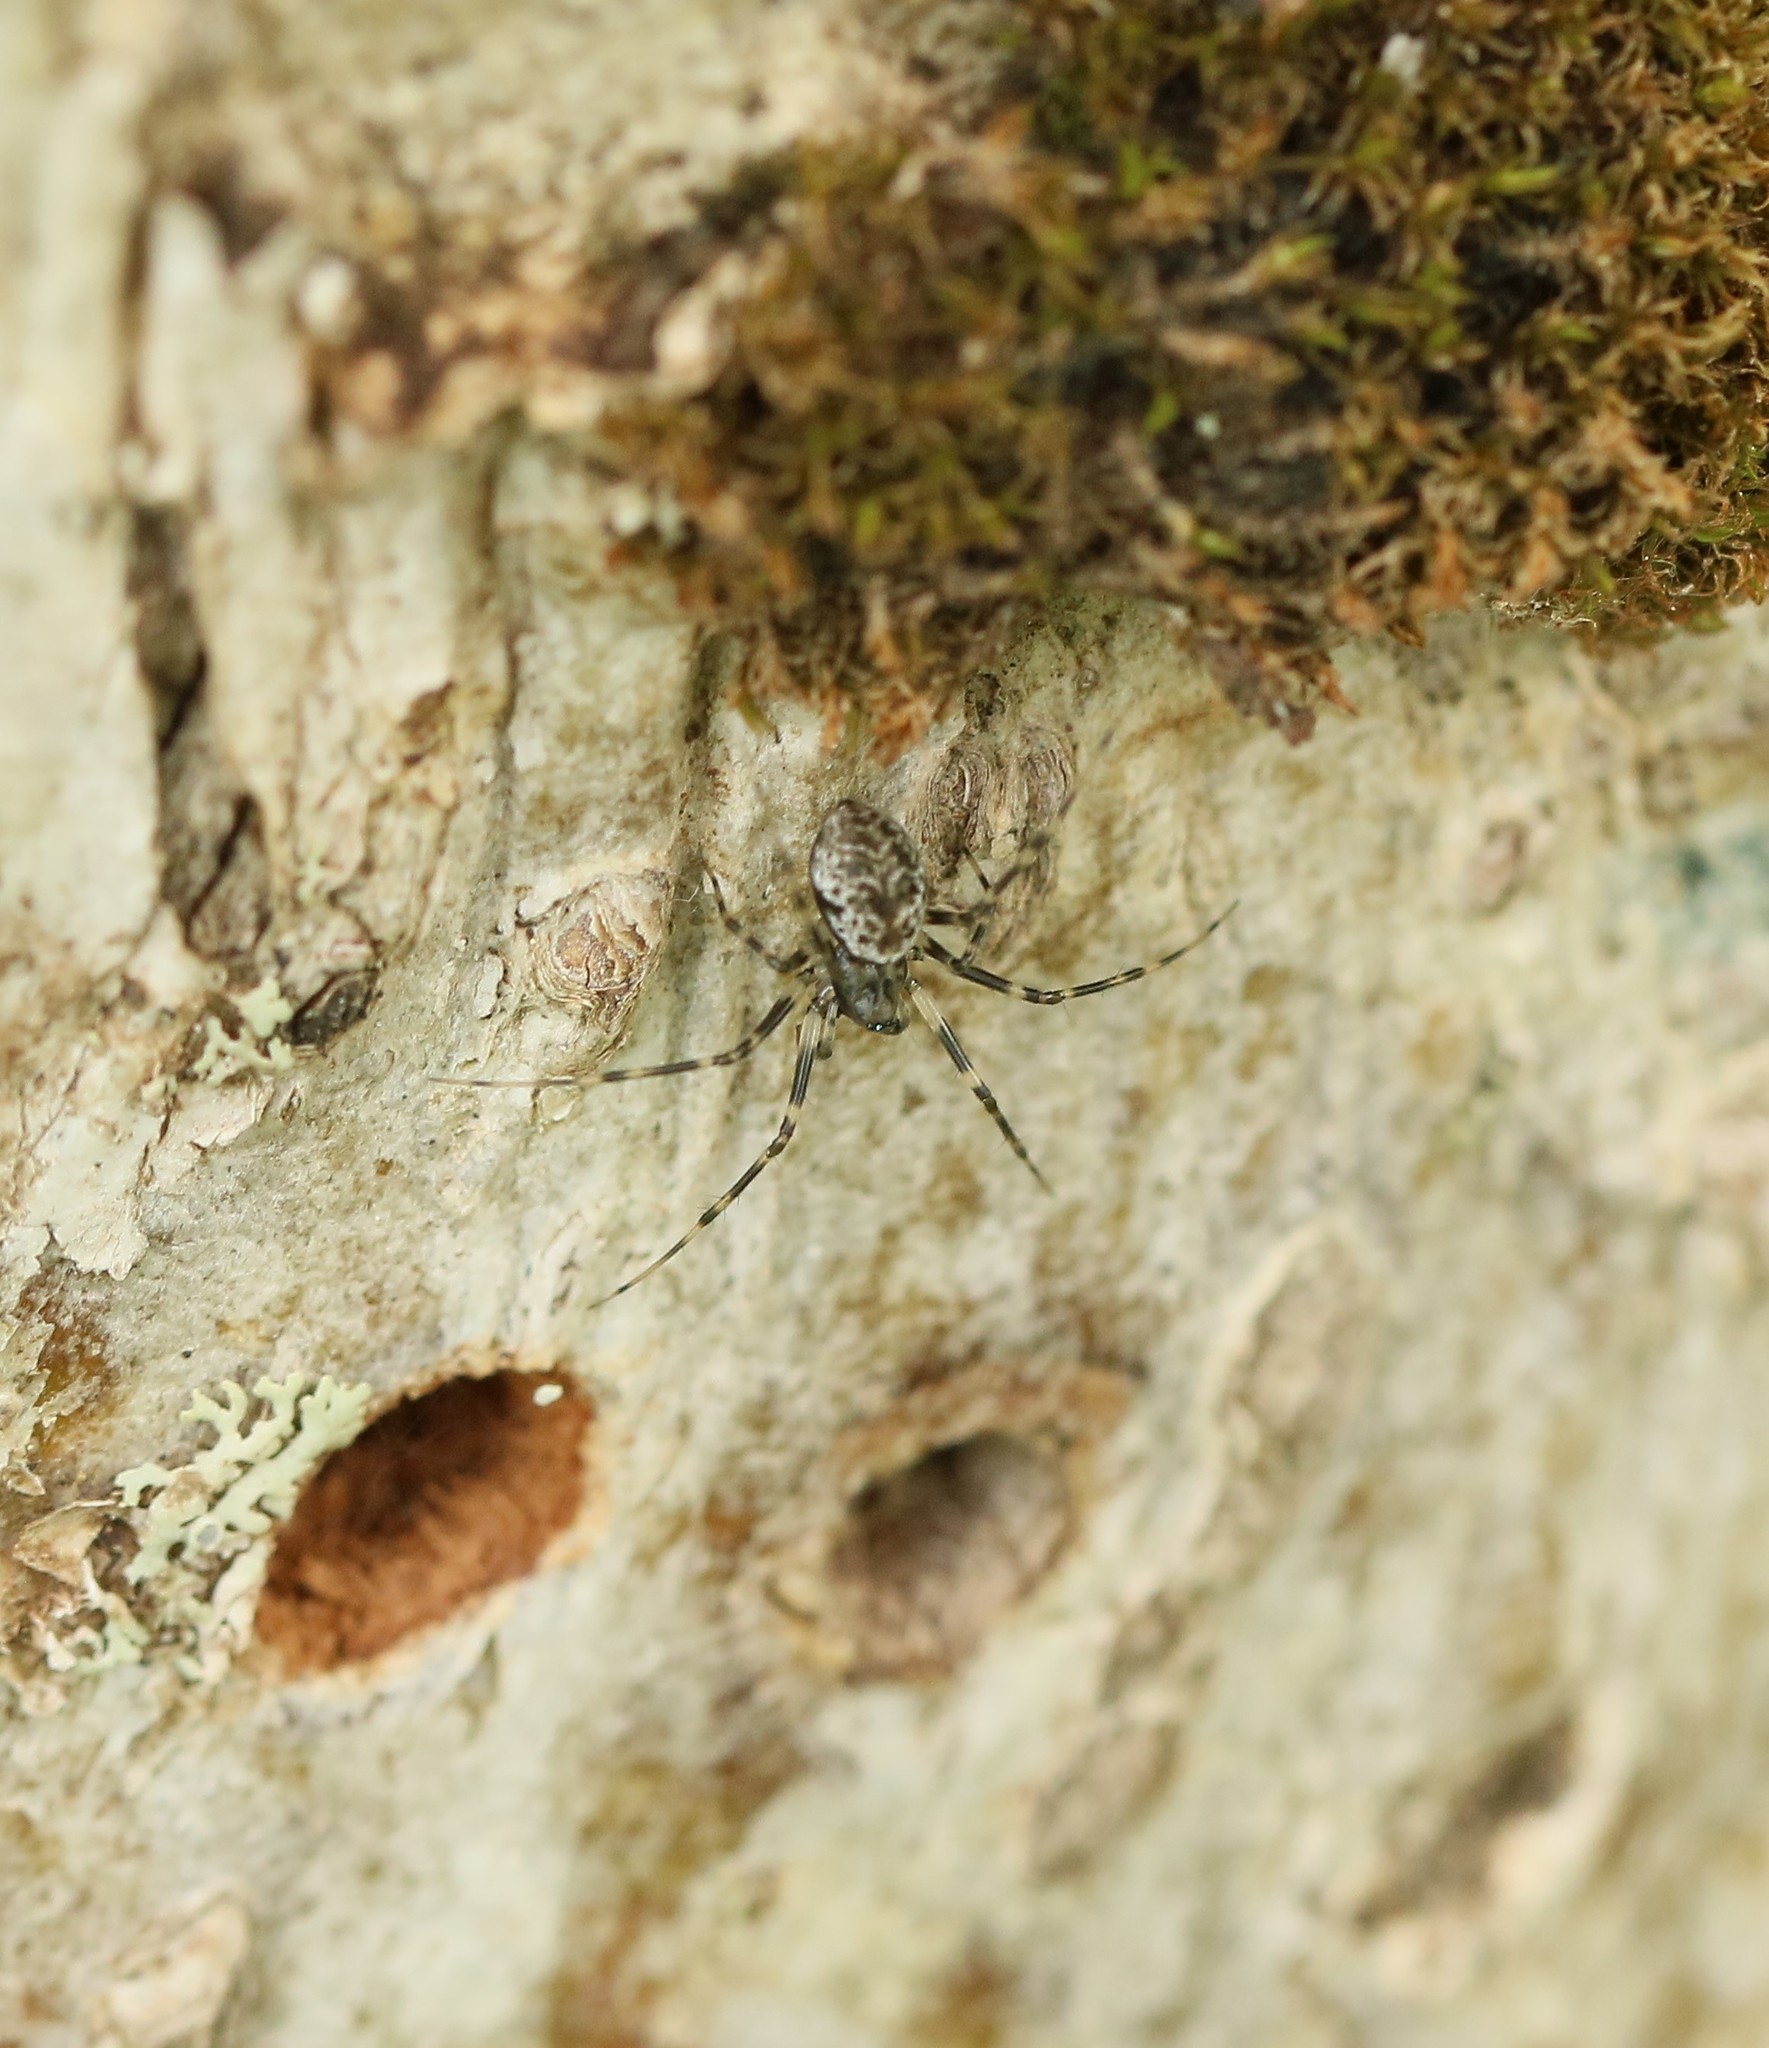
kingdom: Animalia
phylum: Arthropoda
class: Arachnida
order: Araneae
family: Linyphiidae
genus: Drapetisca
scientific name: Drapetisca alteranda
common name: Northern long-toothed sheetweaver
